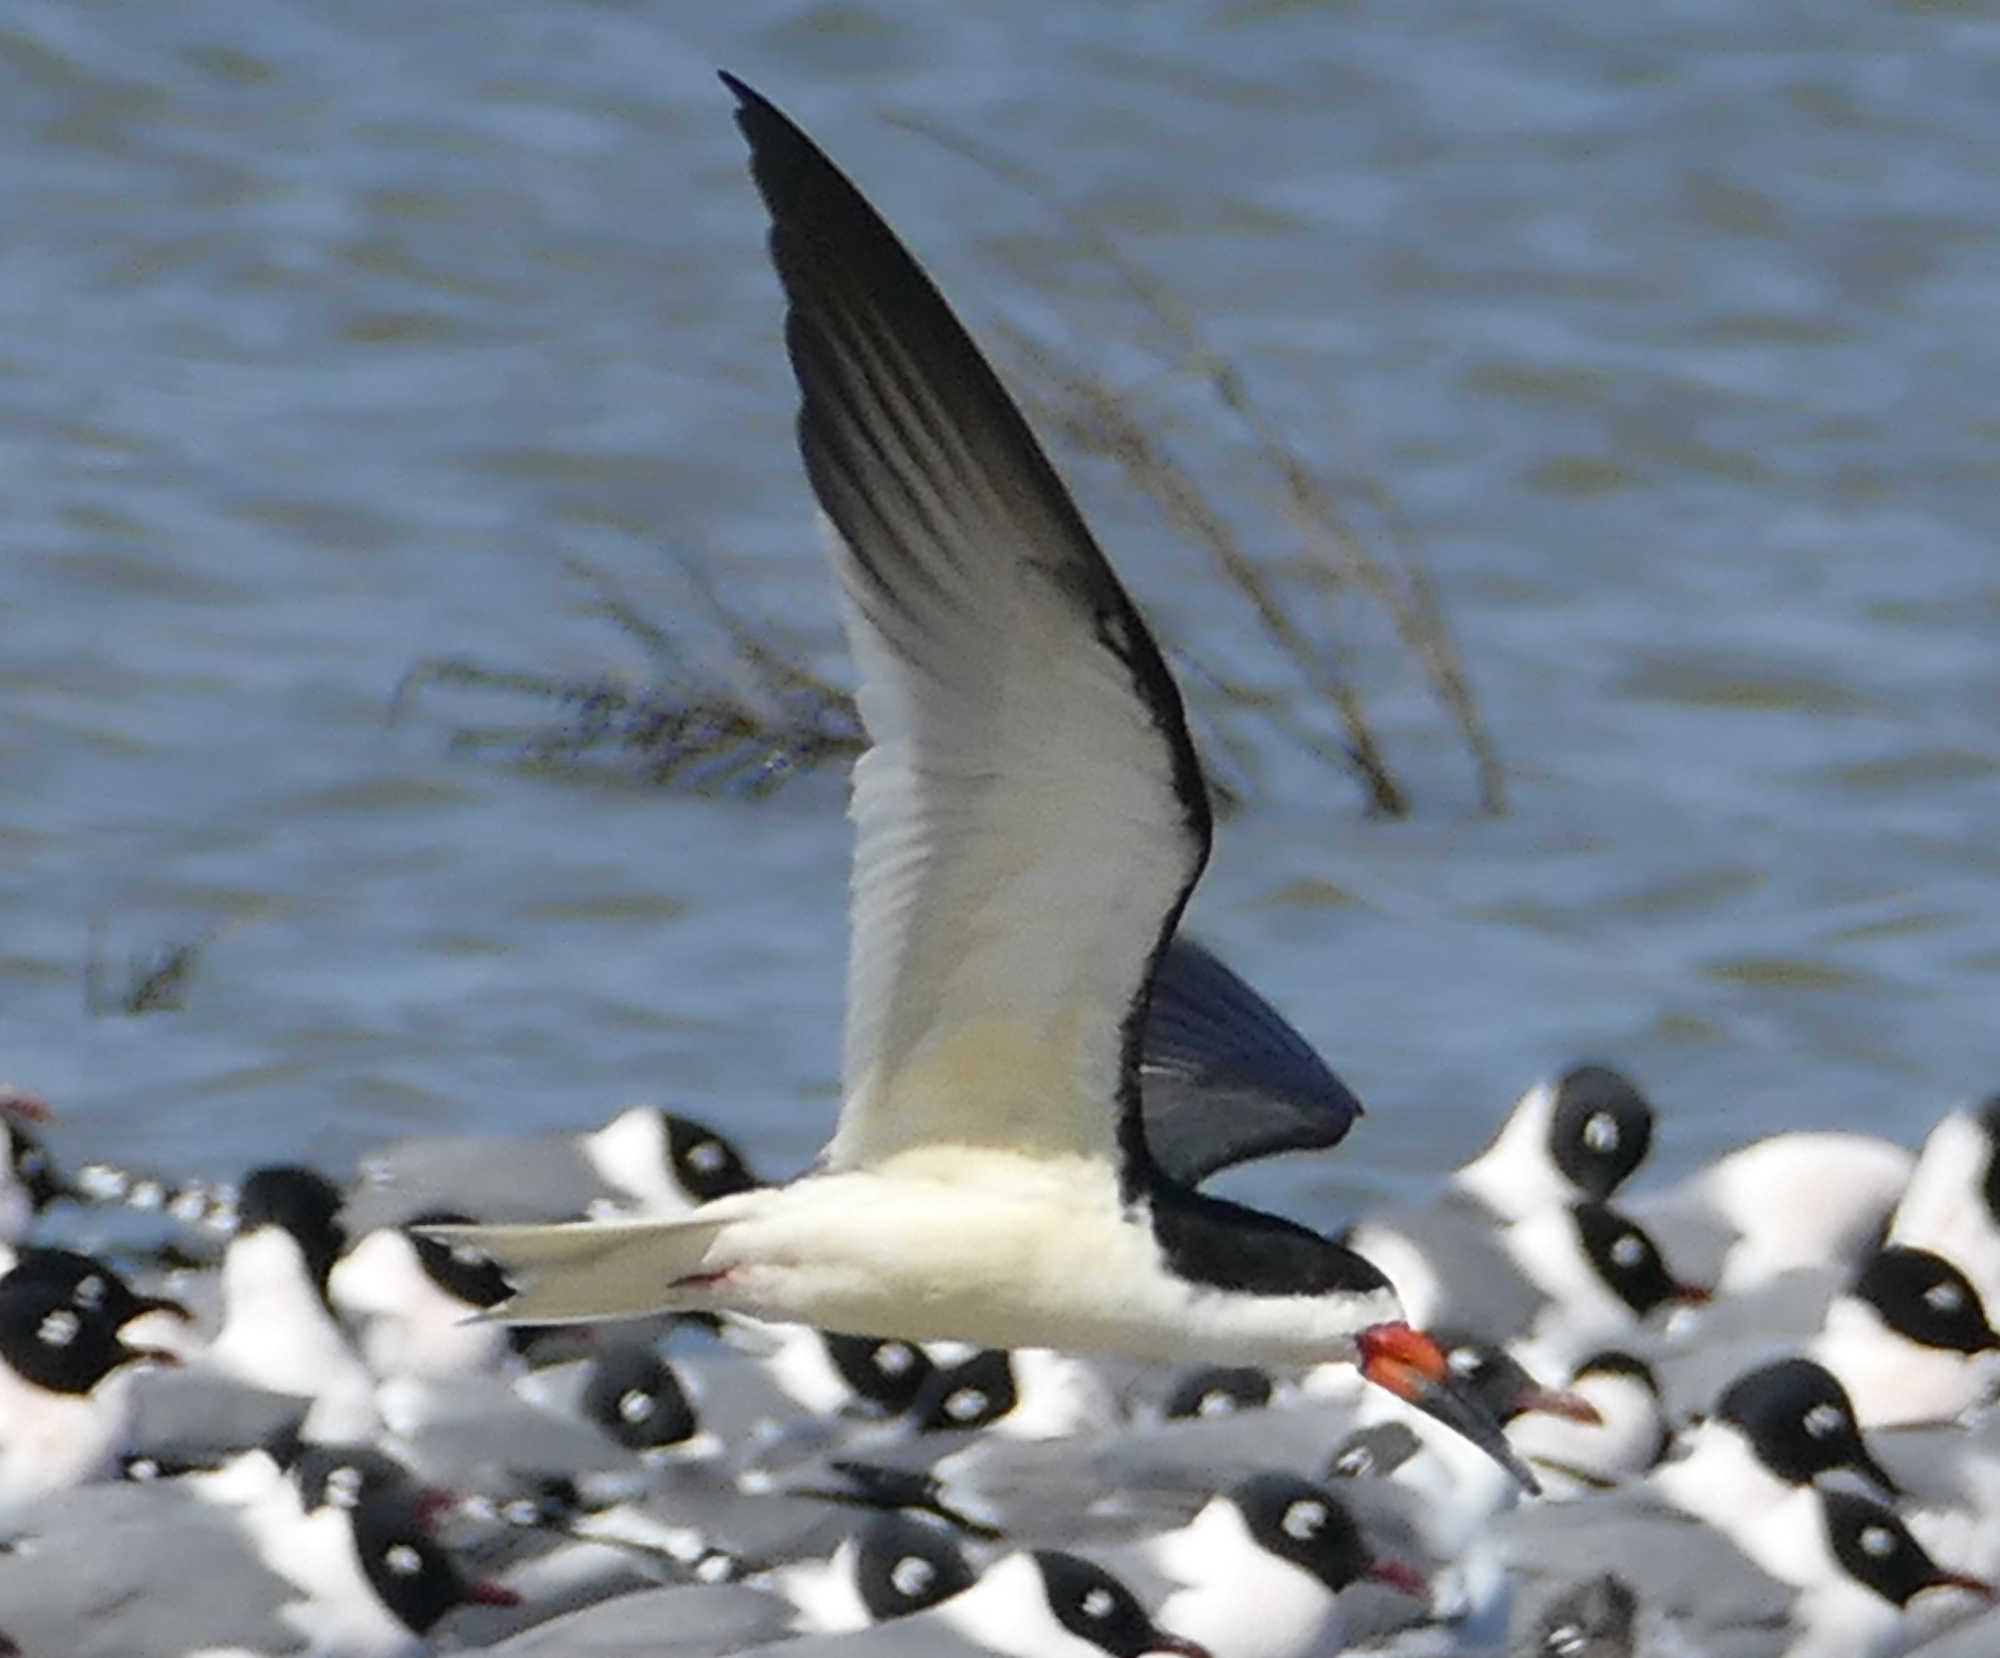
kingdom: Animalia
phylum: Chordata
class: Aves
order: Charadriiformes
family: Laridae
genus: Rynchops
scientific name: Rynchops niger
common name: Black skimmer
